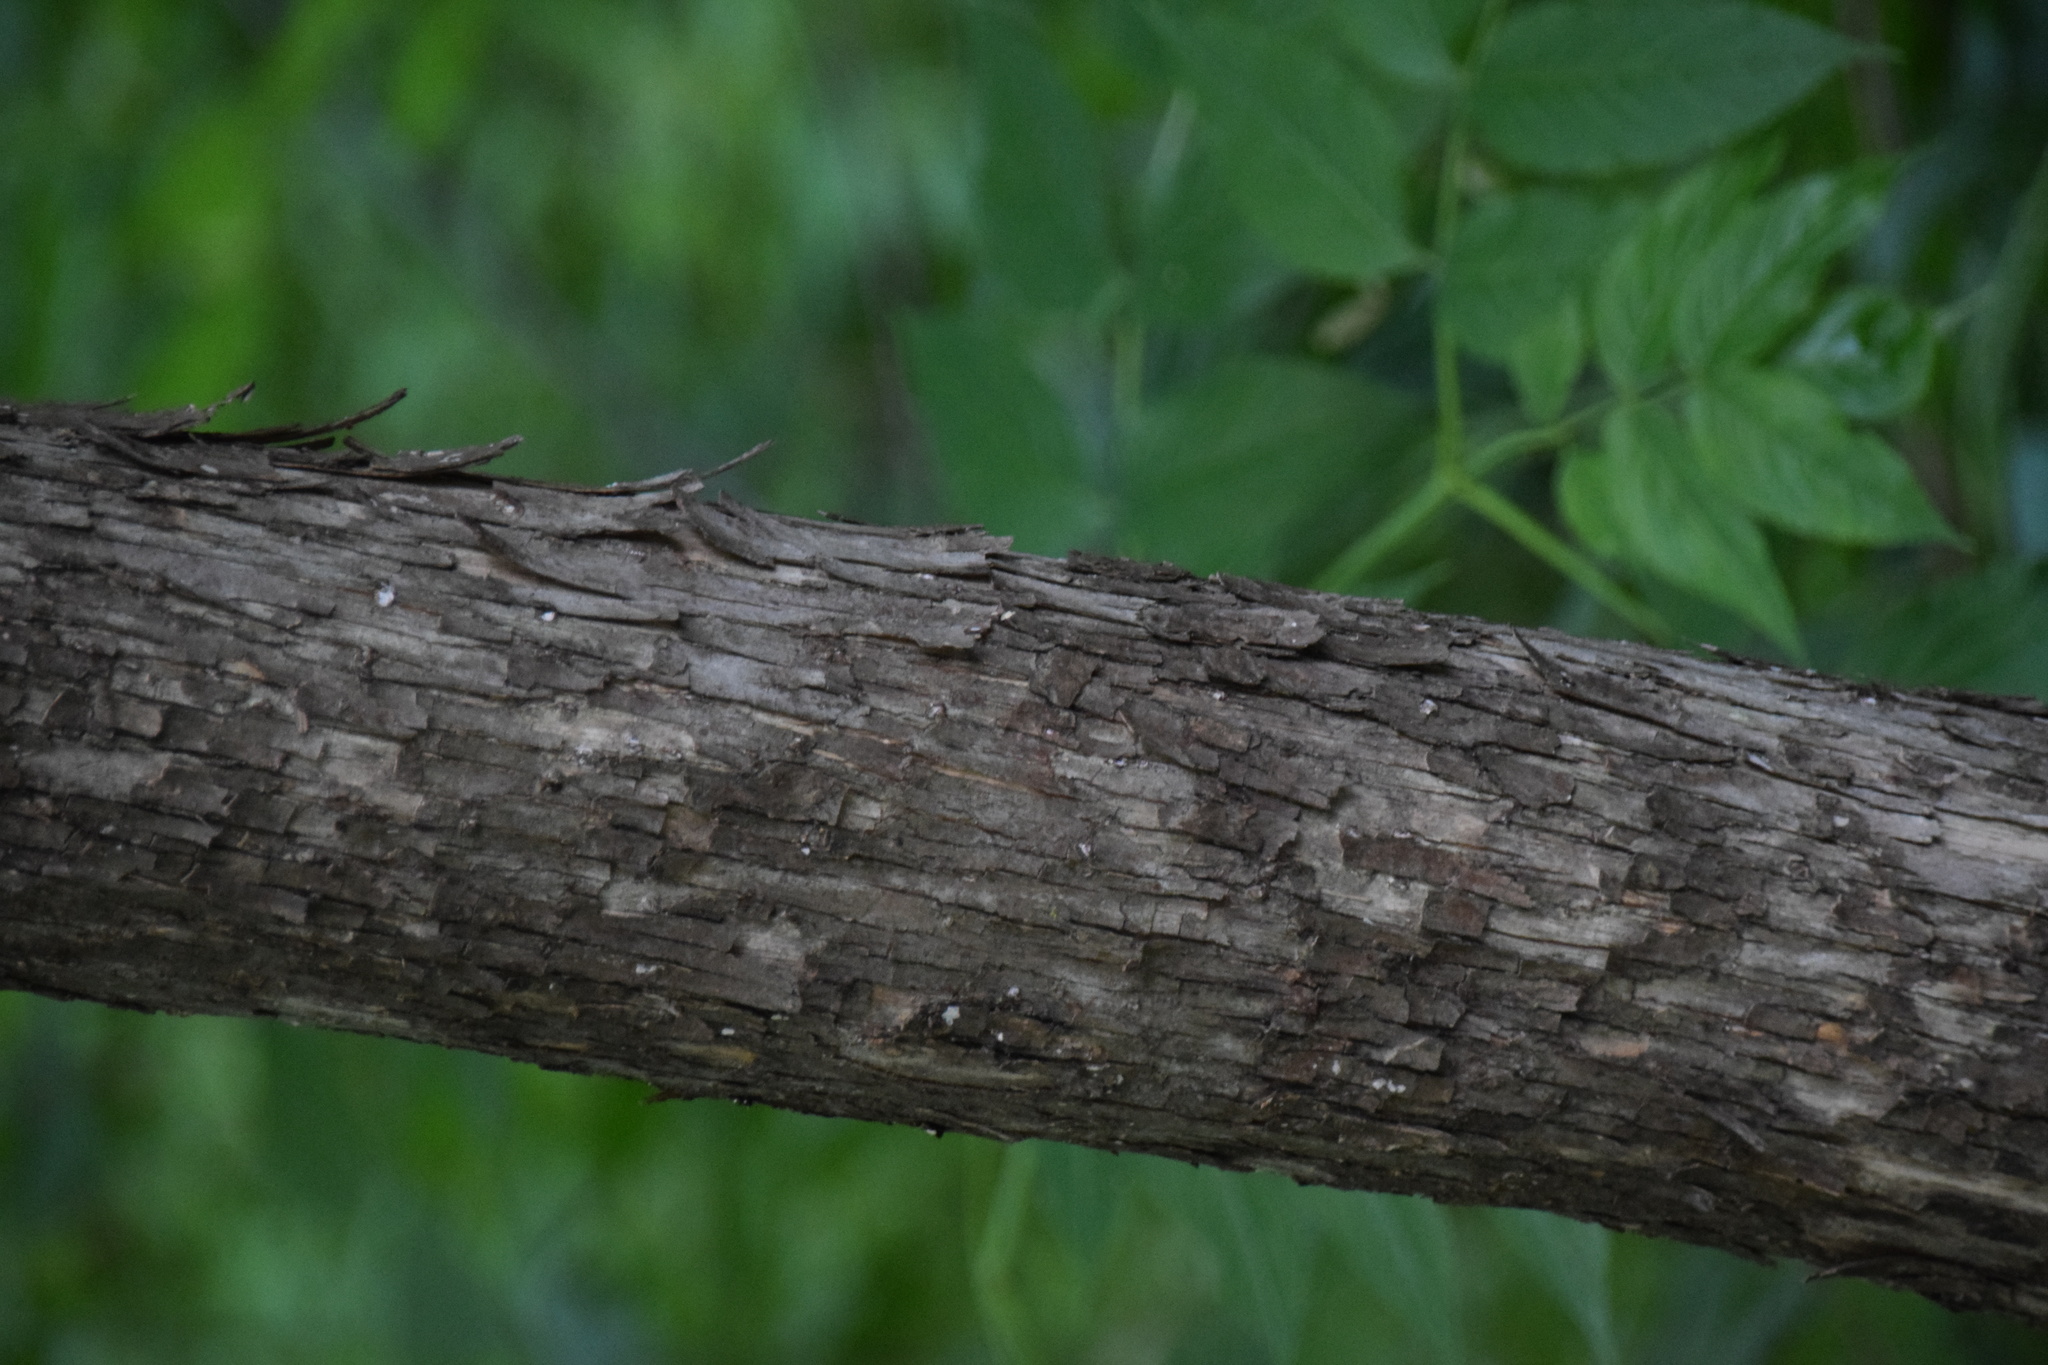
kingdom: Plantae
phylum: Tracheophyta
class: Magnoliopsida
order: Fagales
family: Betulaceae
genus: Ostrya
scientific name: Ostrya virginiana
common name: Ironwood
